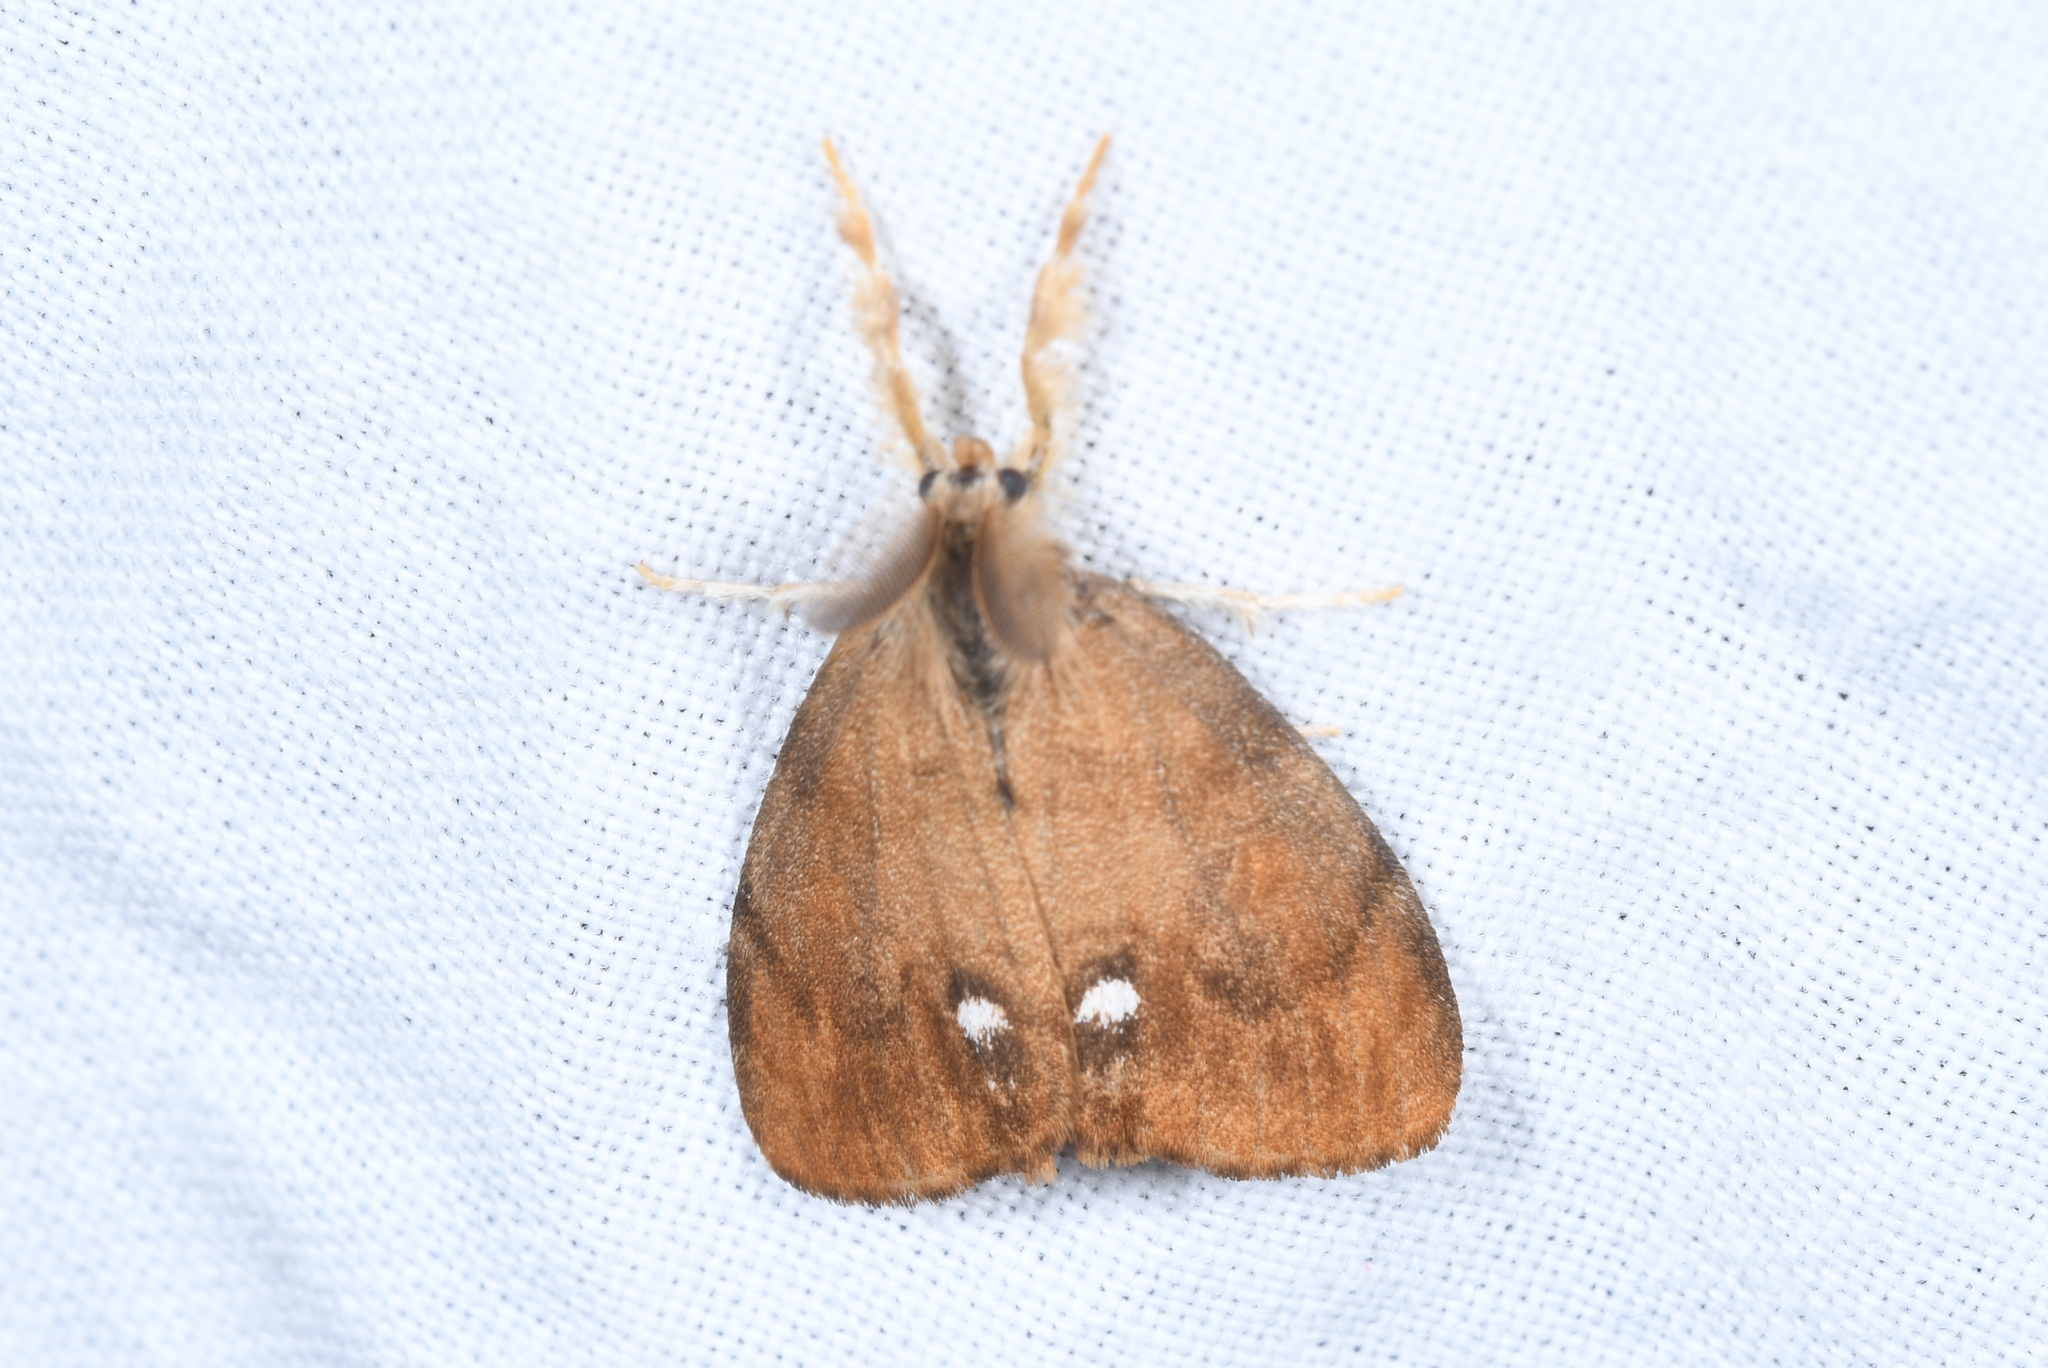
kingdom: Animalia
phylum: Arthropoda
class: Insecta
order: Lepidoptera
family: Erebidae
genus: Orgyia
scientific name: Orgyia antiqua
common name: Vapourer
